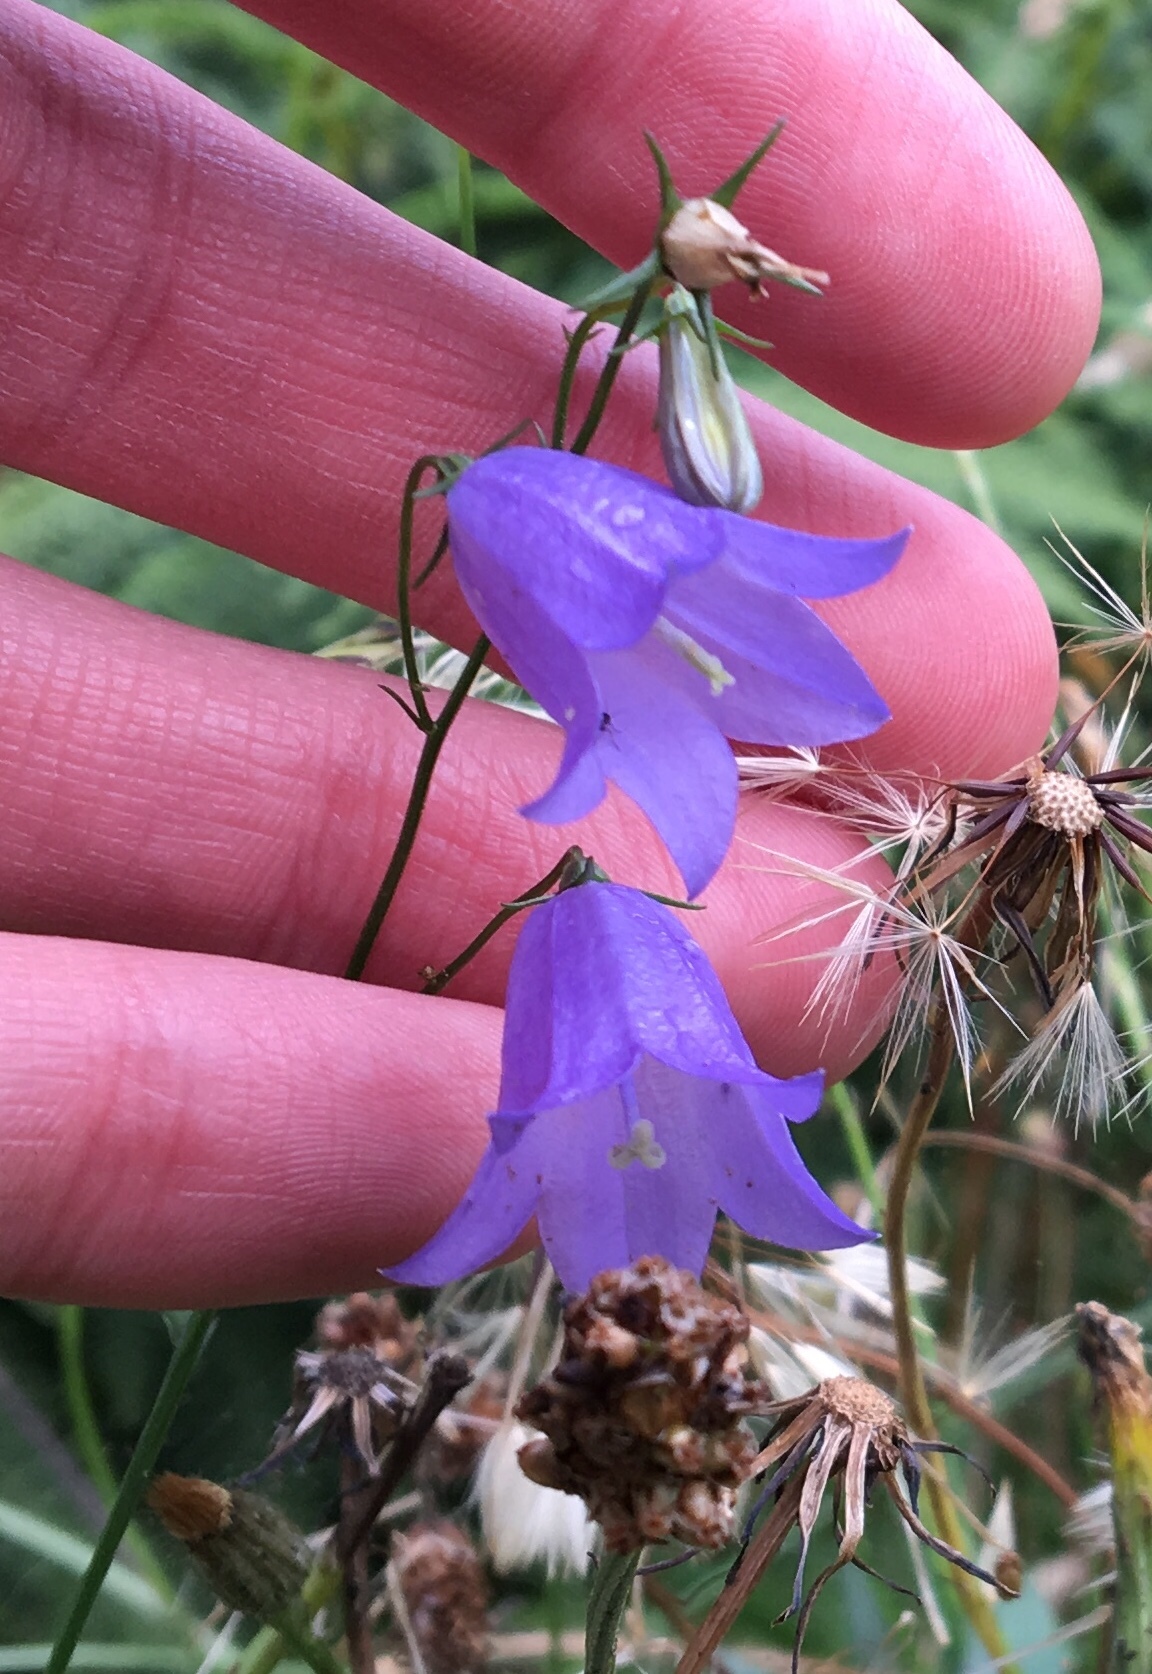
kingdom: Plantae
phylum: Tracheophyta
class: Magnoliopsida
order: Asterales
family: Campanulaceae
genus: Campanula
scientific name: Campanula rotundifolia
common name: Harebell
